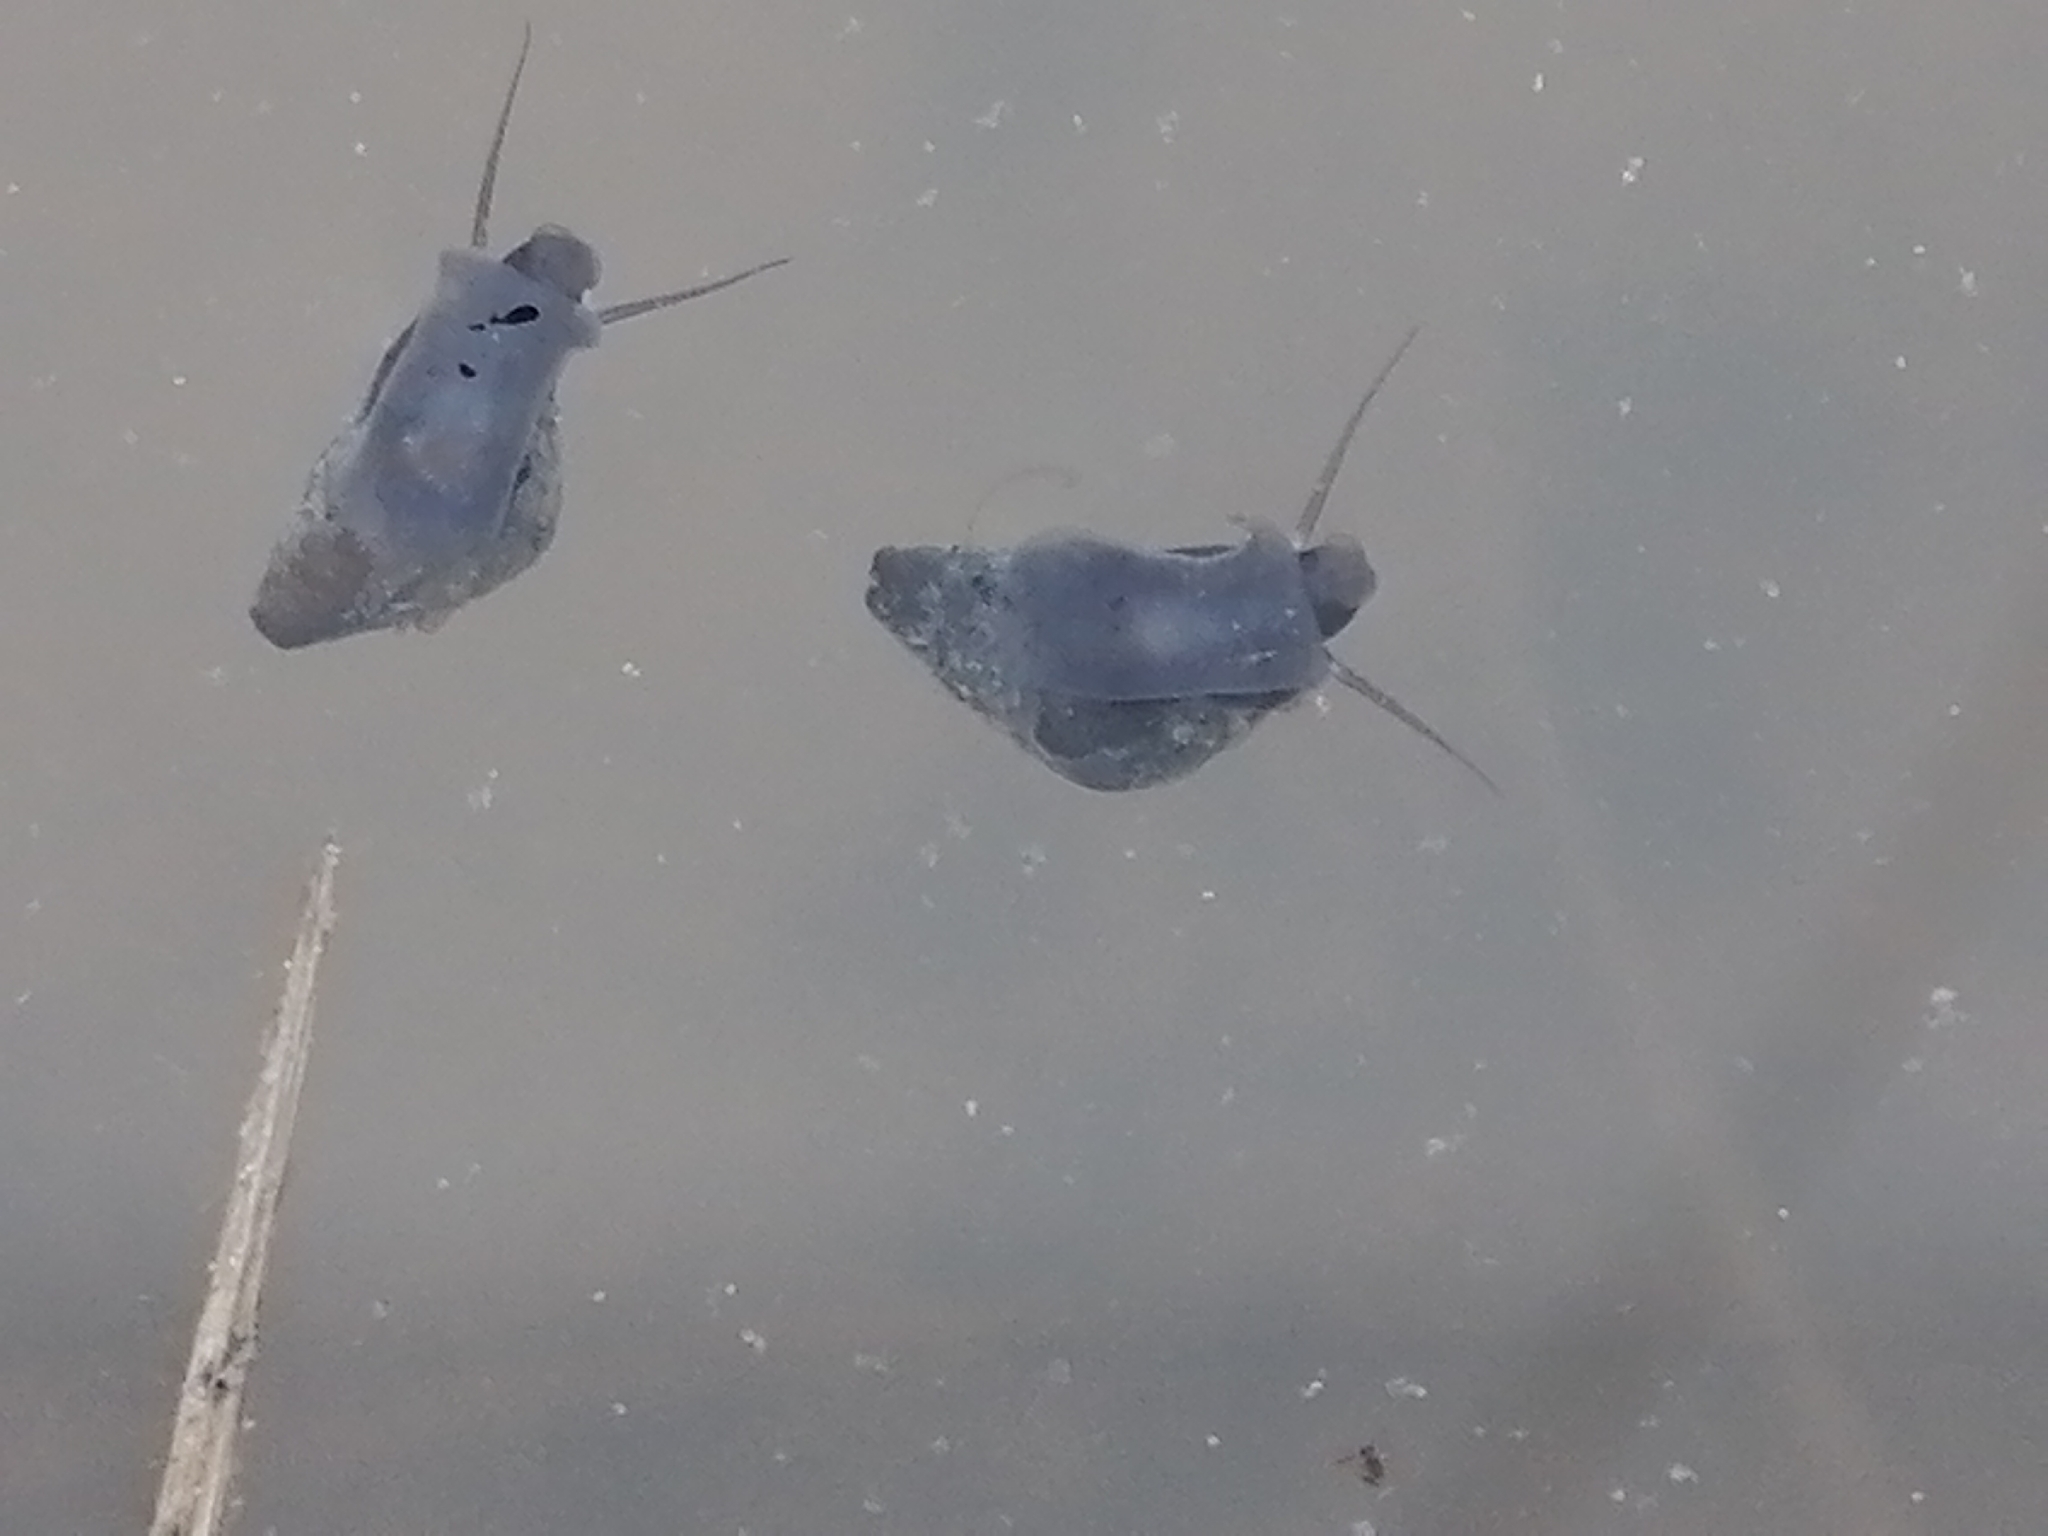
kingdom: Animalia
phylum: Mollusca
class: Gastropoda
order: Littorinimorpha
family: Tateidae
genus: Potamopyrgus
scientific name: Potamopyrgus antipodarum
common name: Jenkins' spire snail
